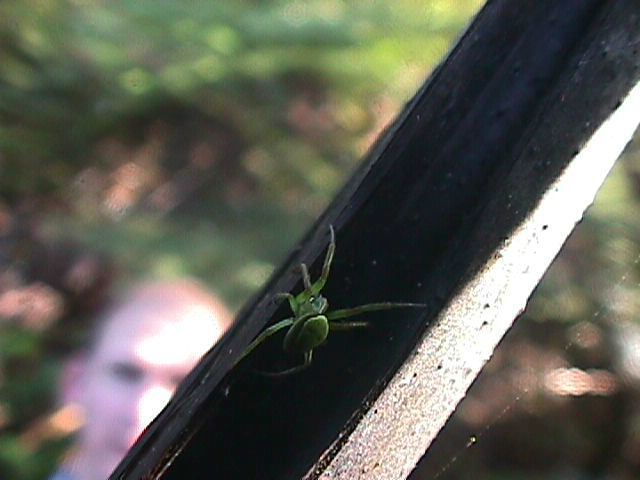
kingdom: Animalia
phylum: Arthropoda
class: Arachnida
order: Araneae
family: Araneidae
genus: Colaranea
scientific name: Colaranea viriditas
